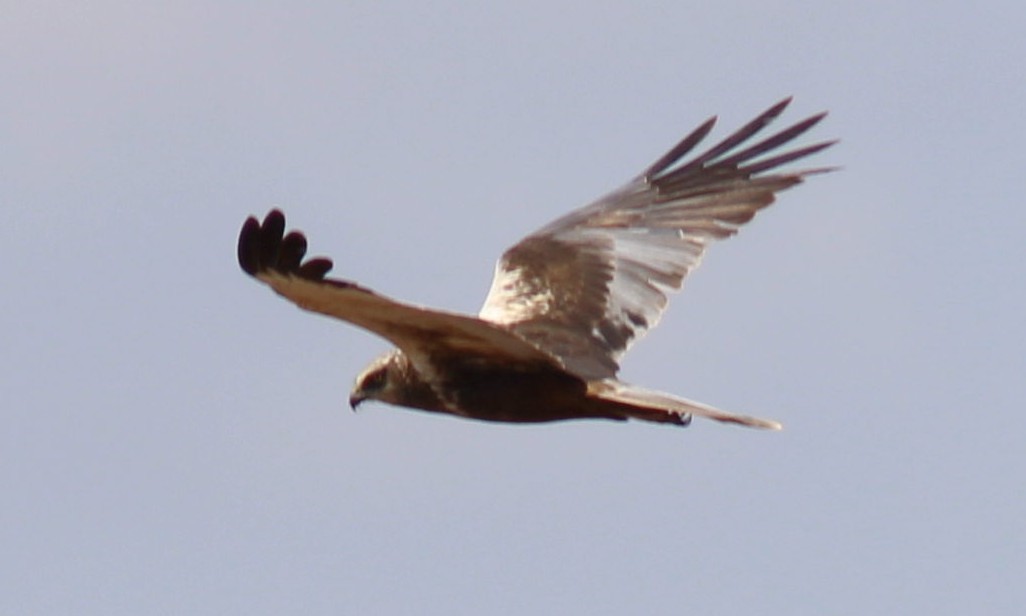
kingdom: Animalia
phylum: Chordata
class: Aves
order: Accipitriformes
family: Accipitridae
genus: Circus
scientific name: Circus aeruginosus
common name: Western marsh harrier
